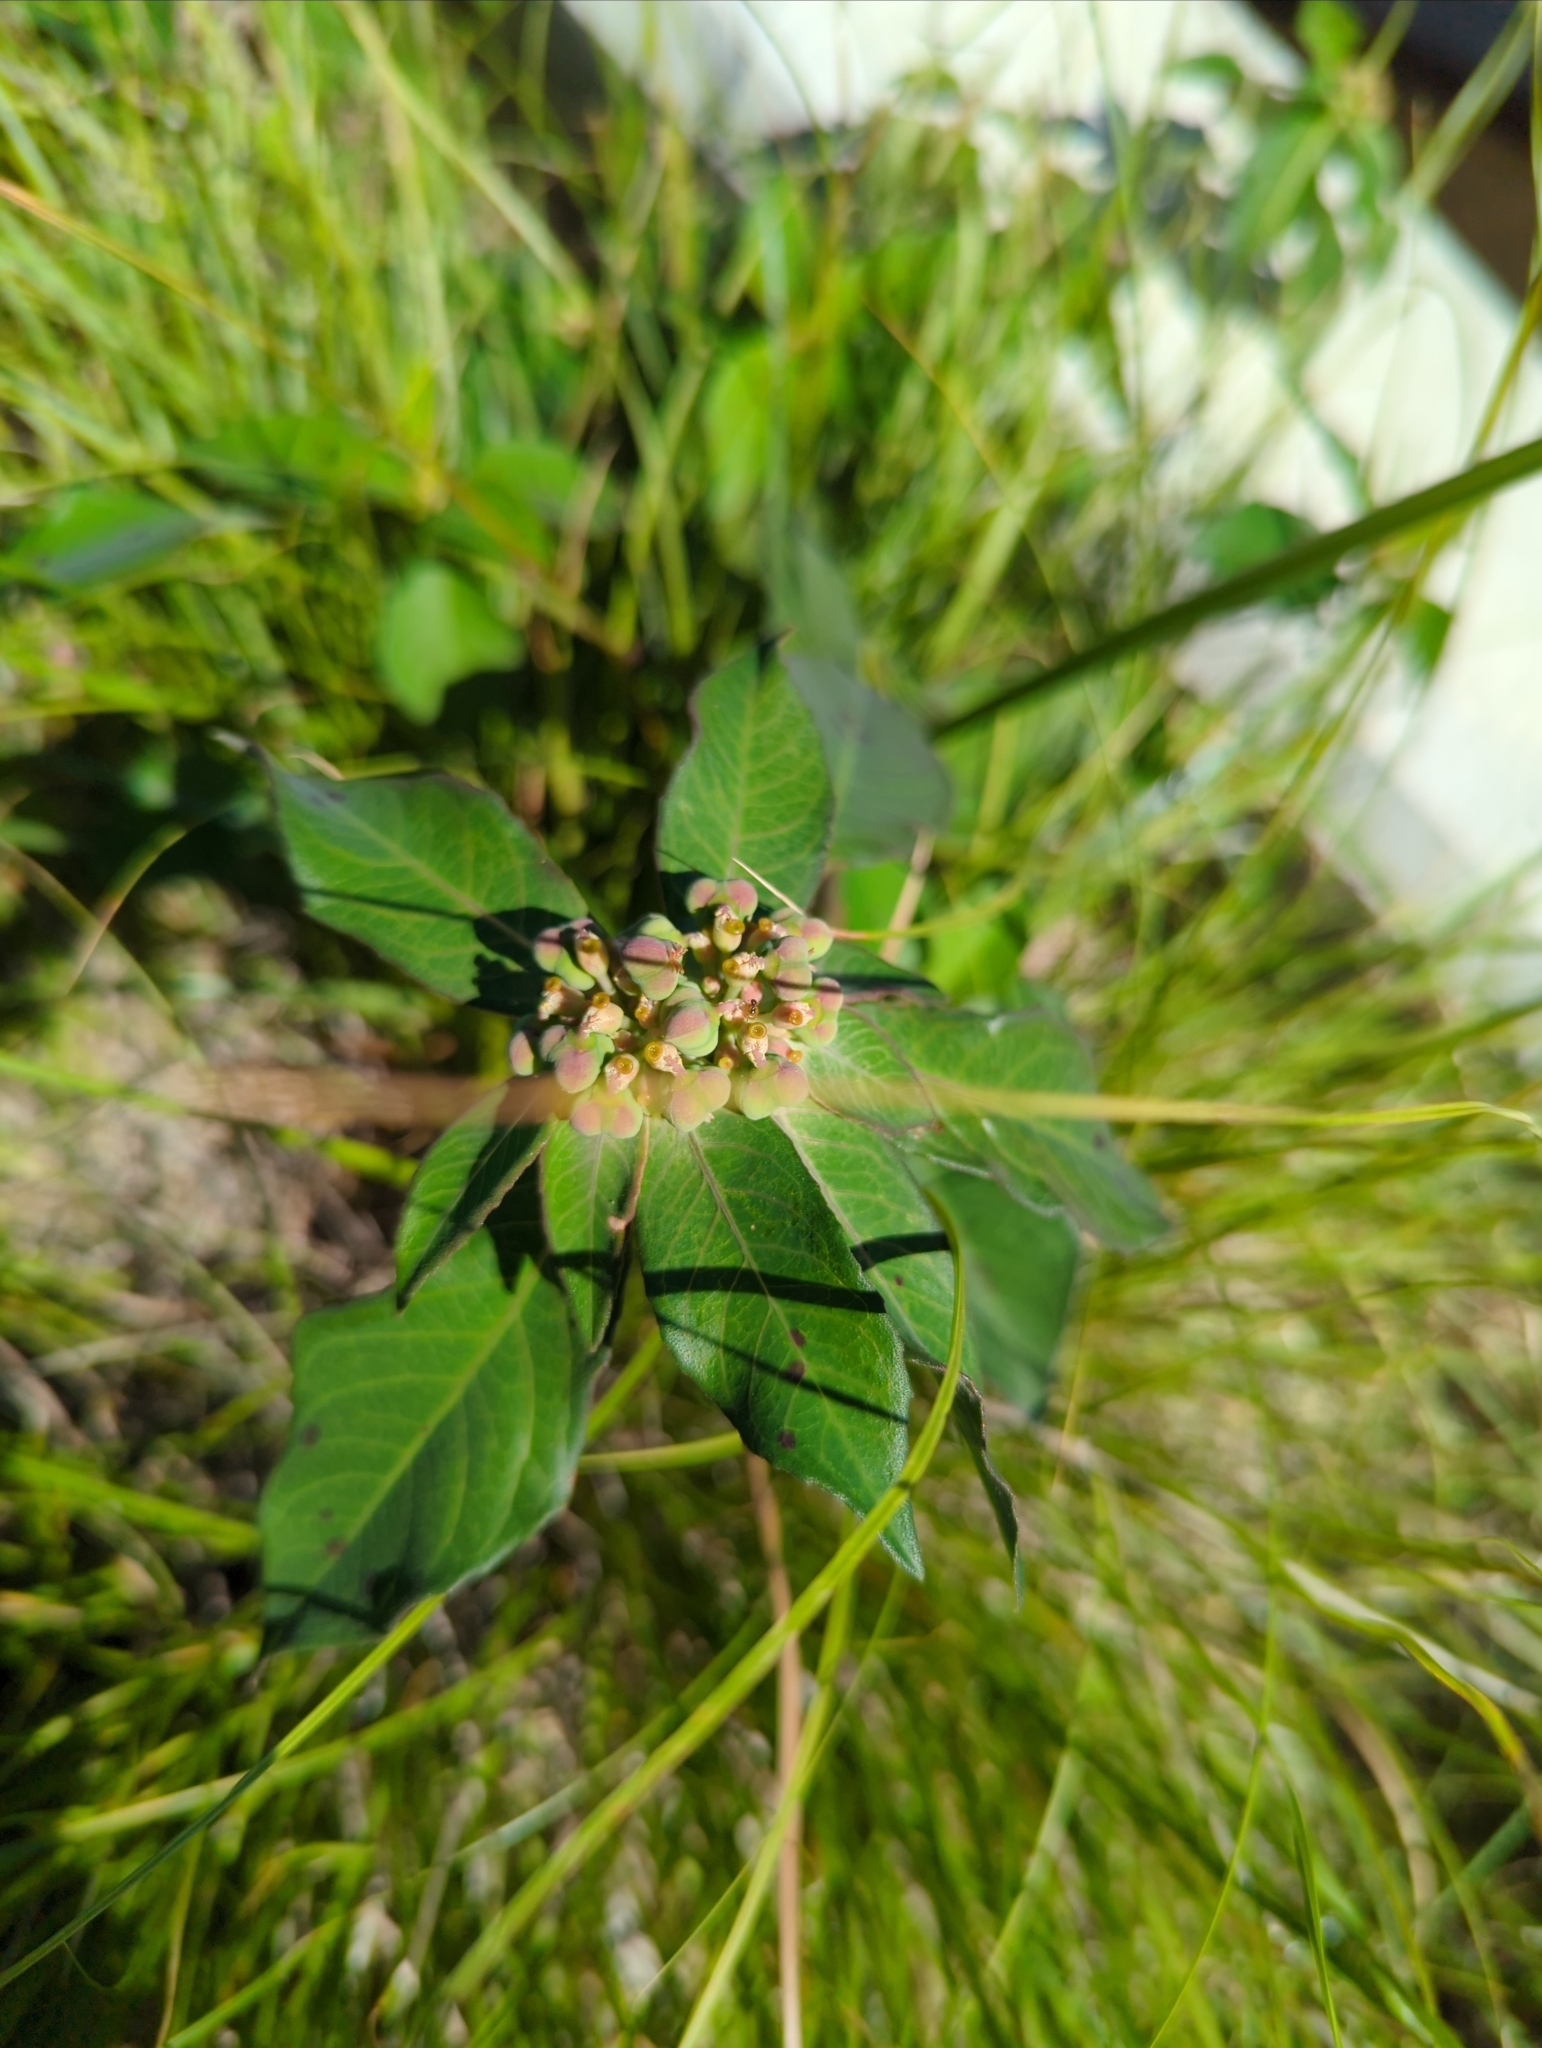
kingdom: Plantae
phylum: Tracheophyta
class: Magnoliopsida
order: Malpighiales
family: Euphorbiaceae
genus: Euphorbia
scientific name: Euphorbia heterophylla
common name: Mexican fireplant
